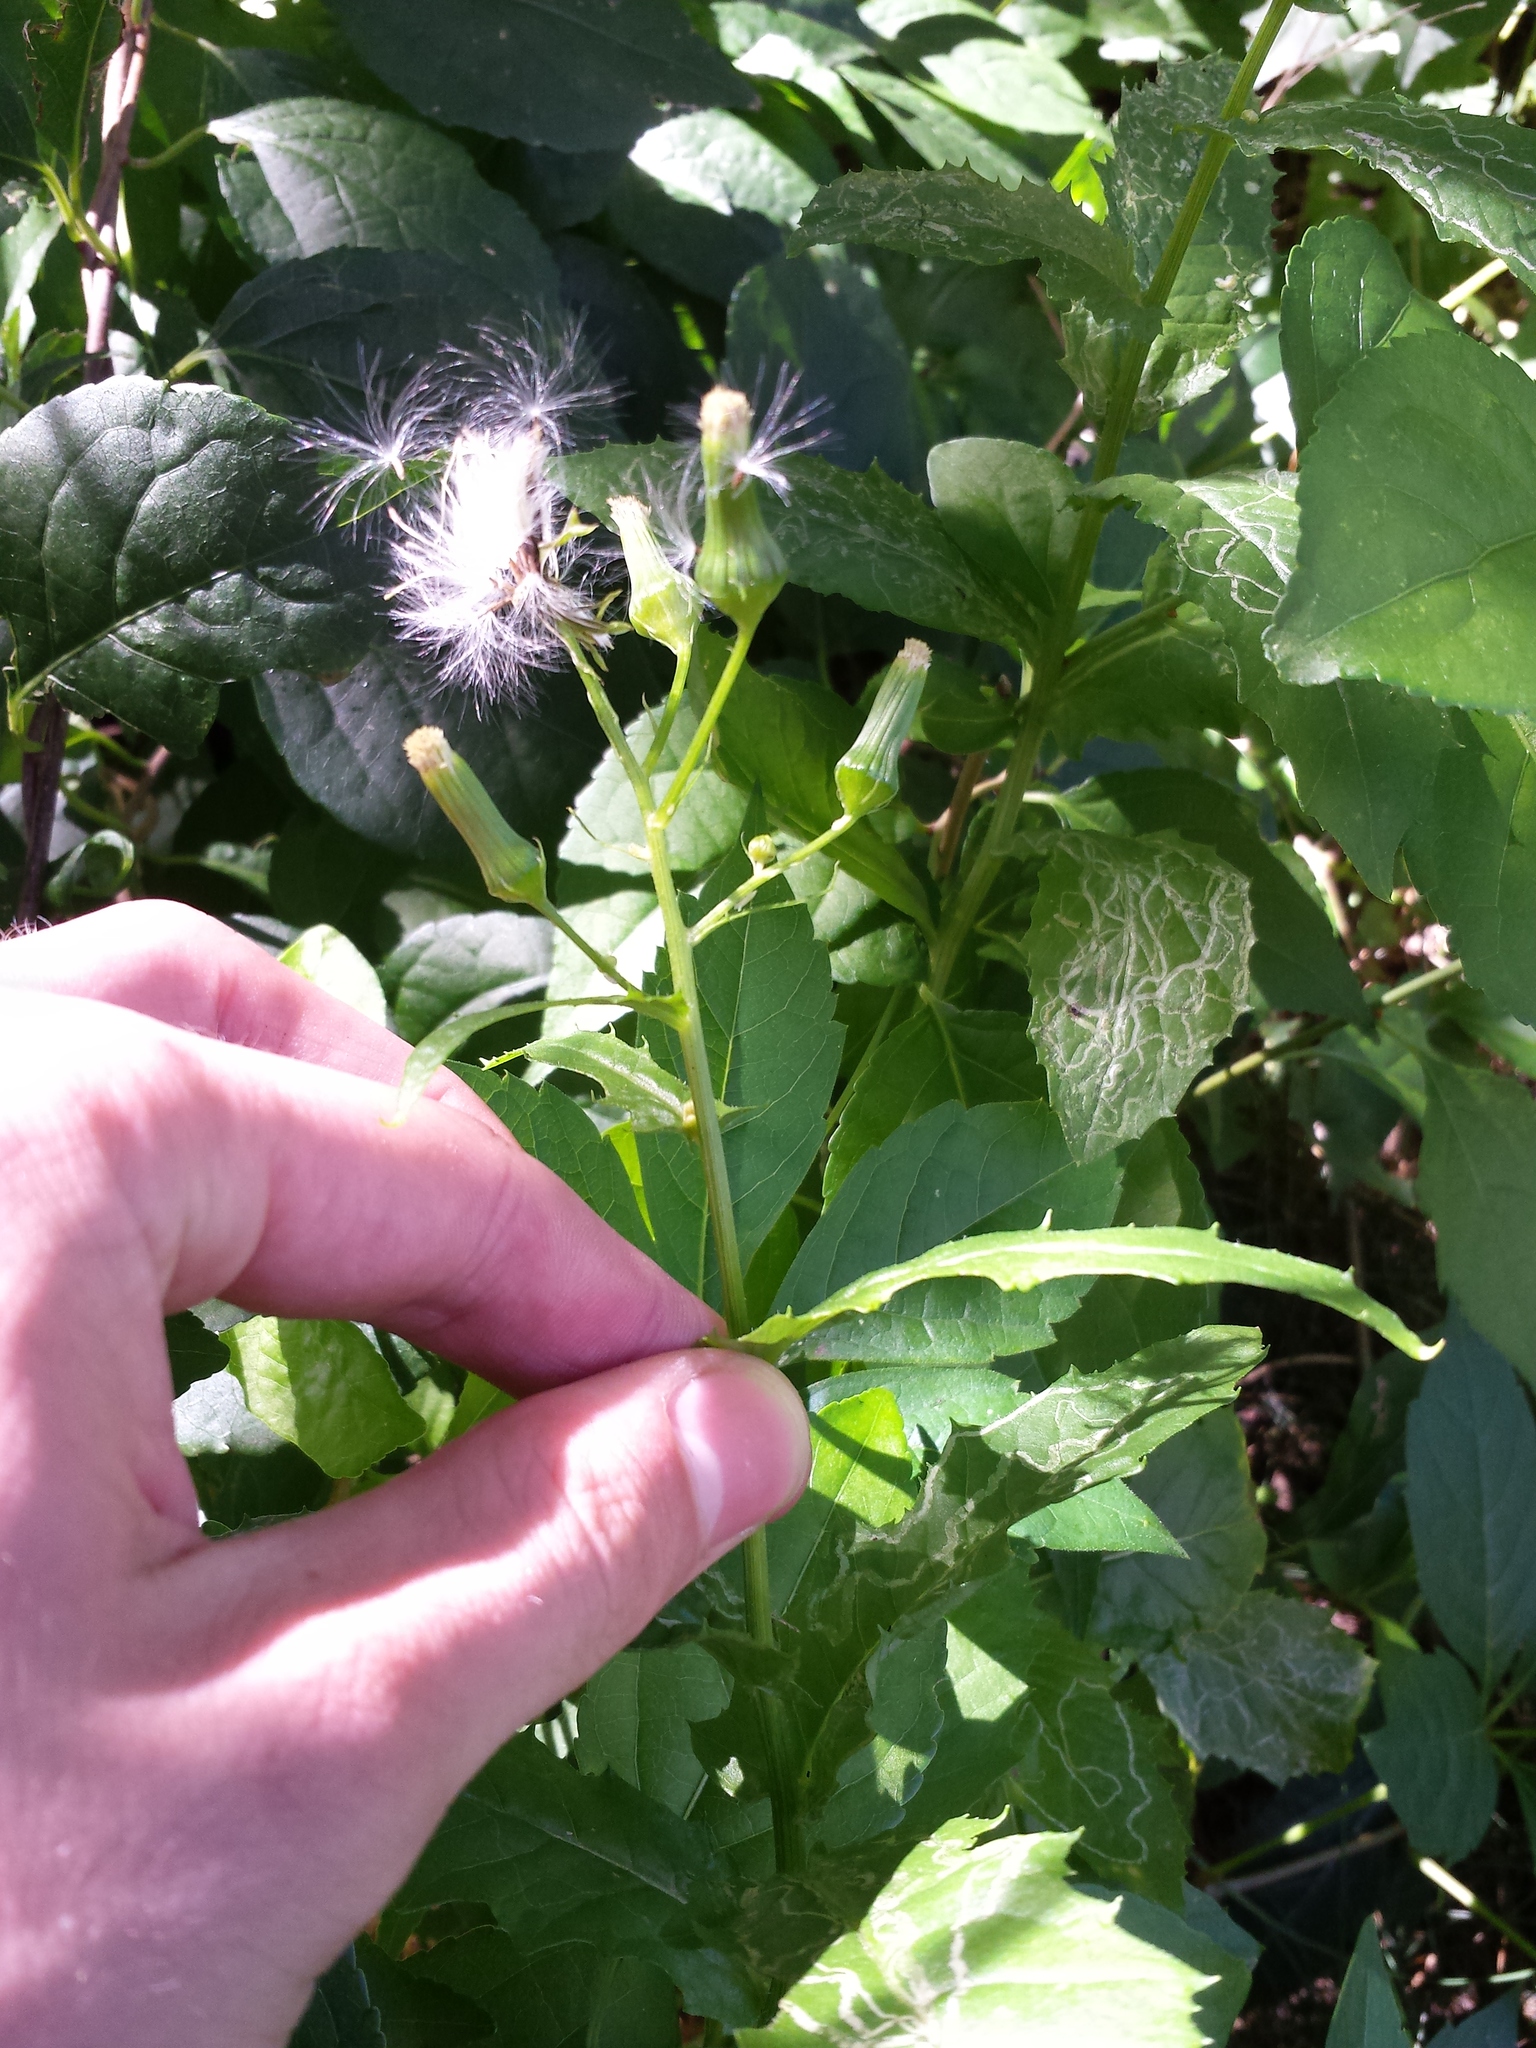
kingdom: Plantae
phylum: Tracheophyta
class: Magnoliopsida
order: Asterales
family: Asteraceae
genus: Erechtites
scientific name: Erechtites hieraciifolius
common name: American burnweed
